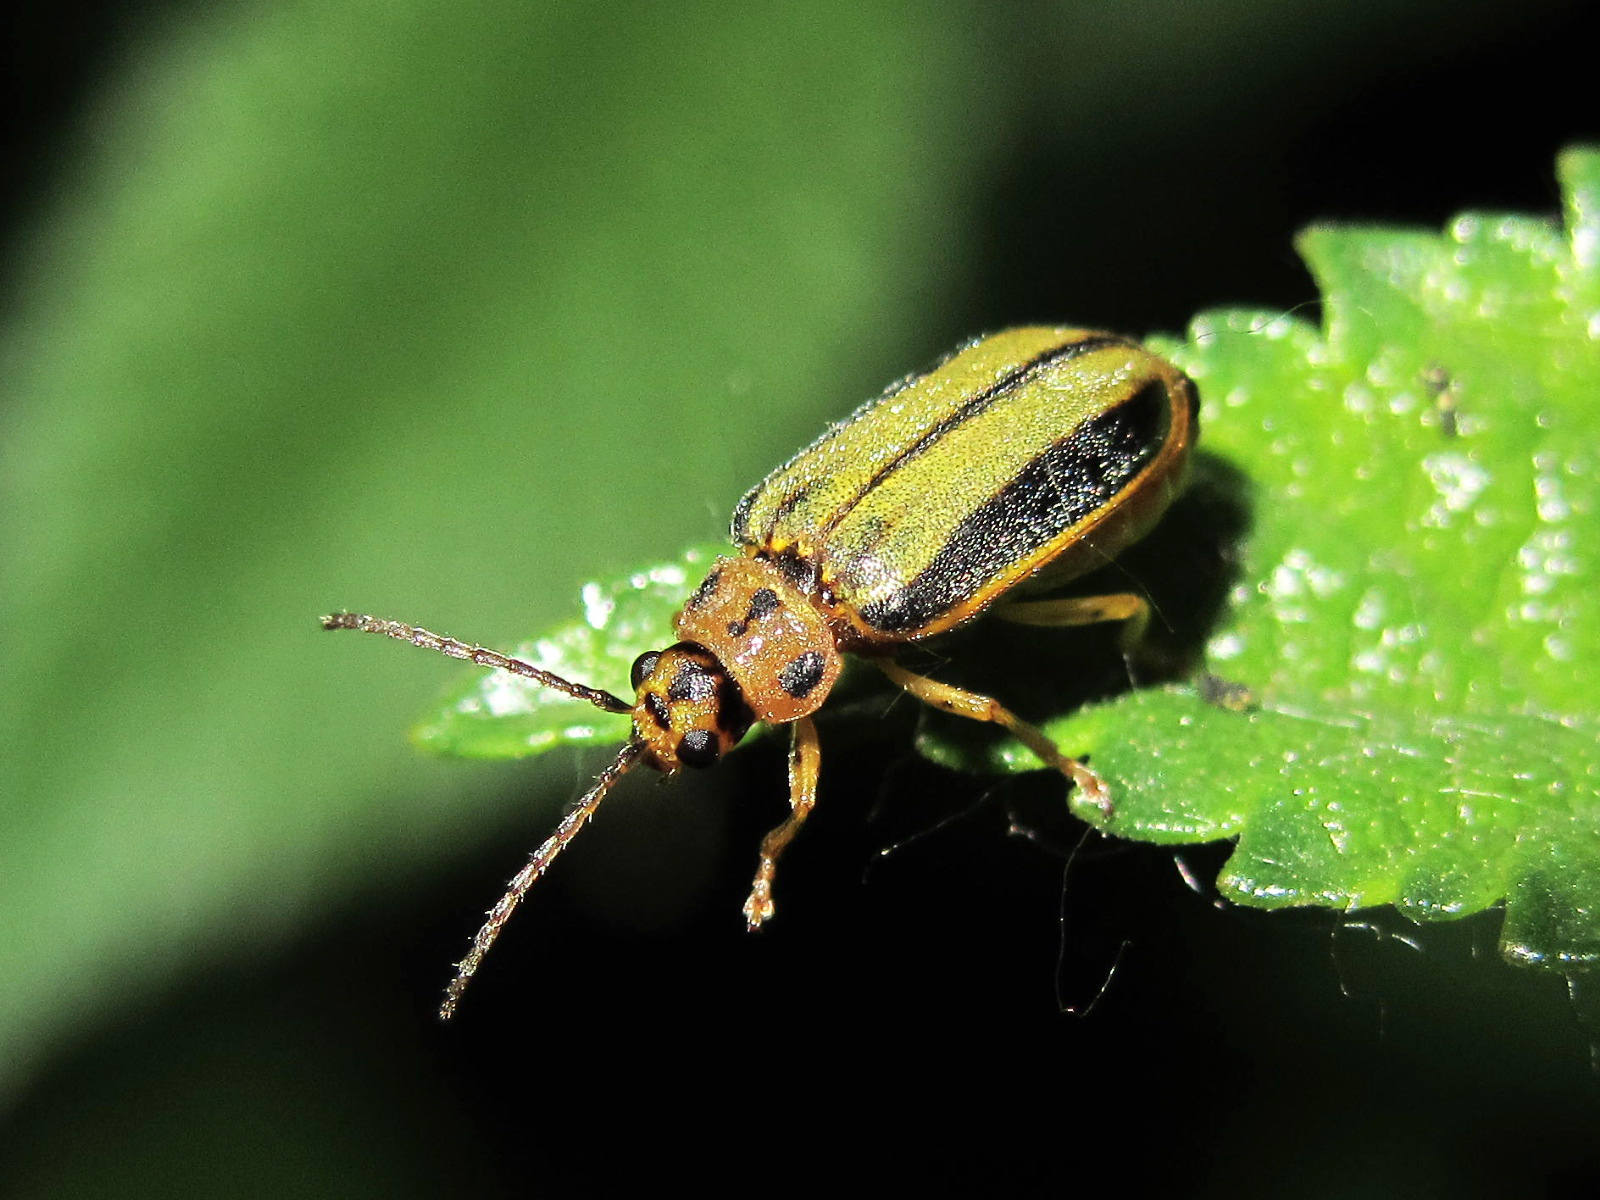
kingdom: Animalia
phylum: Arthropoda
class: Insecta
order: Coleoptera
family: Chrysomelidae
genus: Xanthogaleruca
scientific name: Xanthogaleruca luteola
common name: Elm leaf beetle
